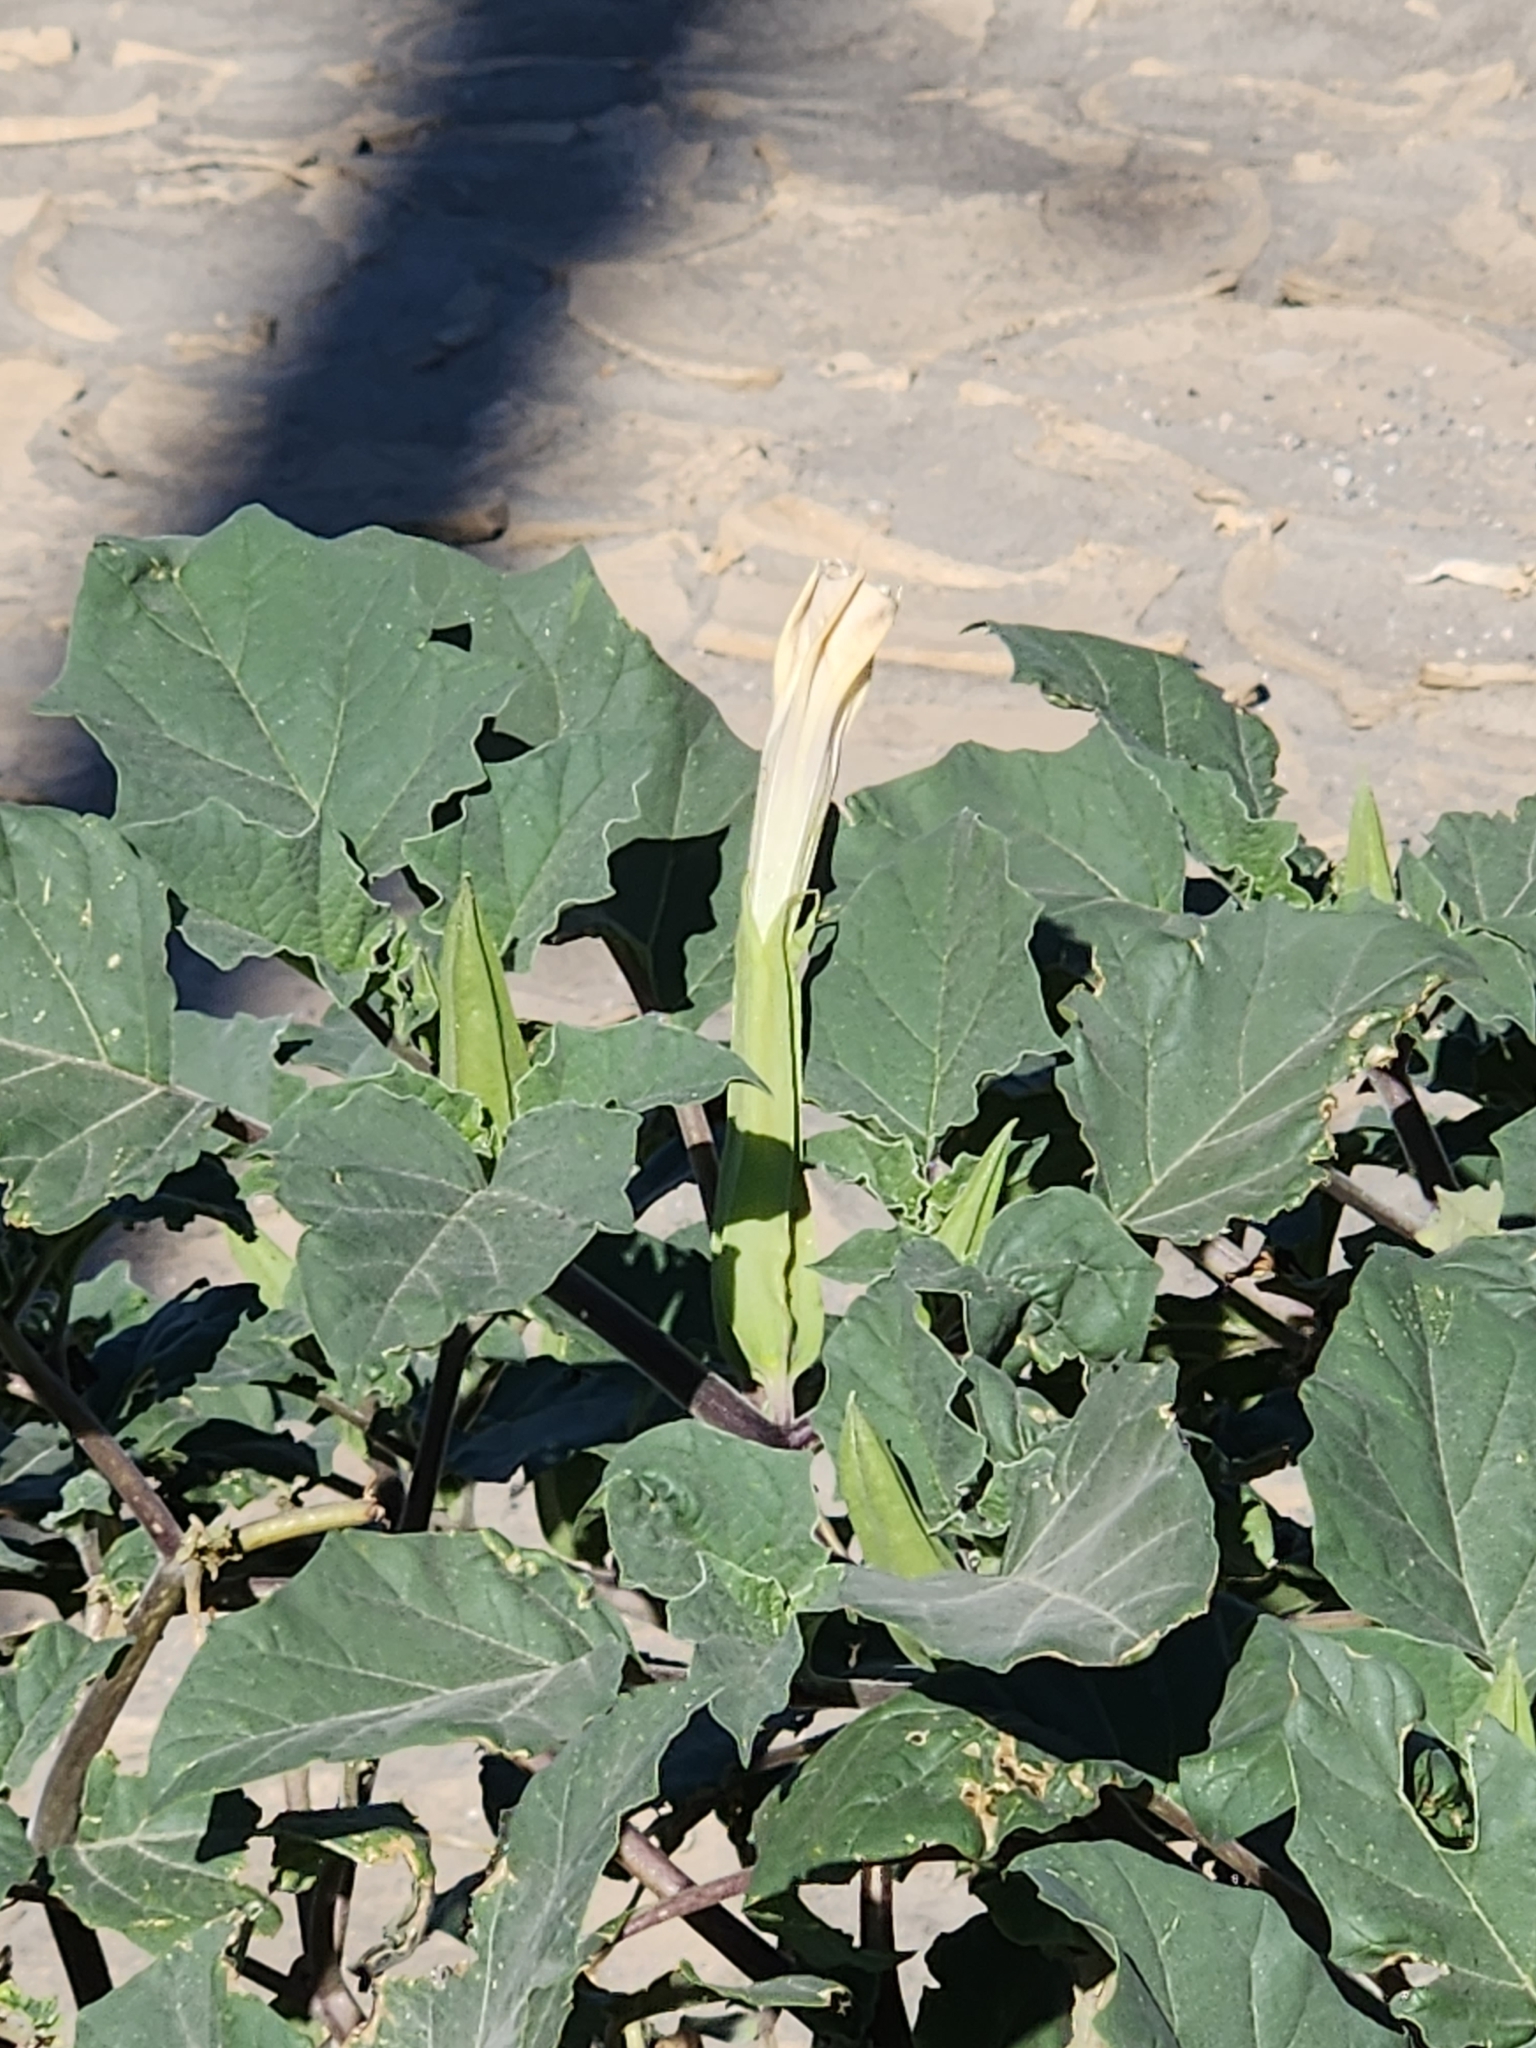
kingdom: Plantae
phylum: Tracheophyta
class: Magnoliopsida
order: Solanales
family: Solanaceae
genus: Datura
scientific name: Datura discolor
